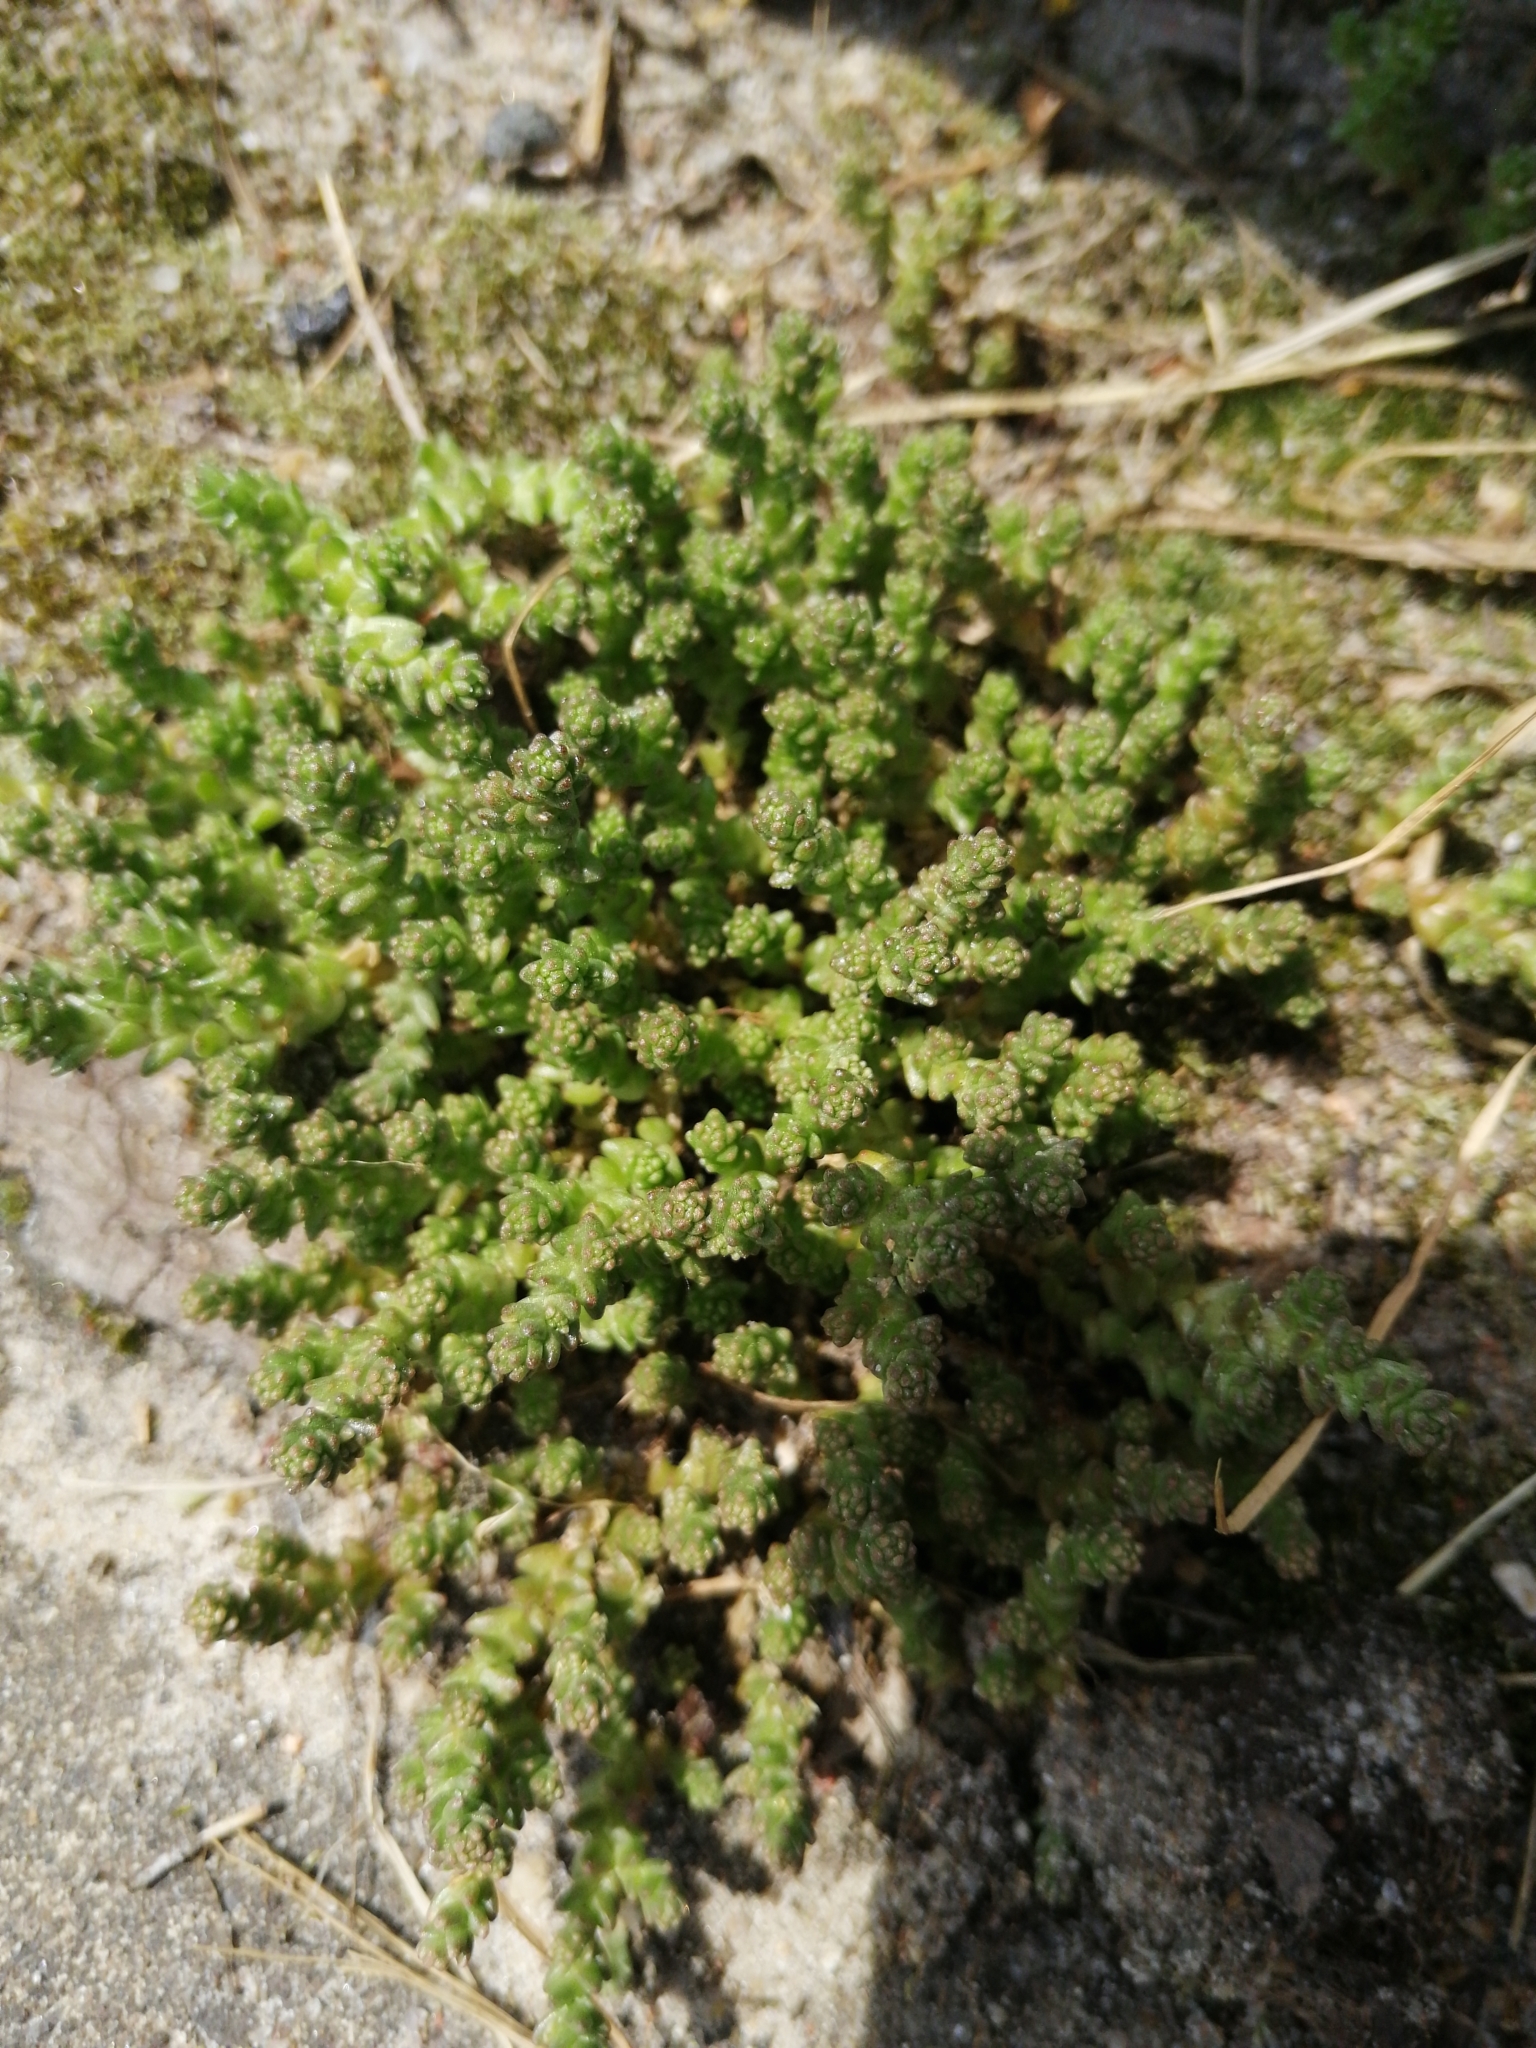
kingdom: Plantae
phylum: Tracheophyta
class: Magnoliopsida
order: Saxifragales
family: Crassulaceae
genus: Sedum
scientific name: Sedum acre
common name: Biting stonecrop
